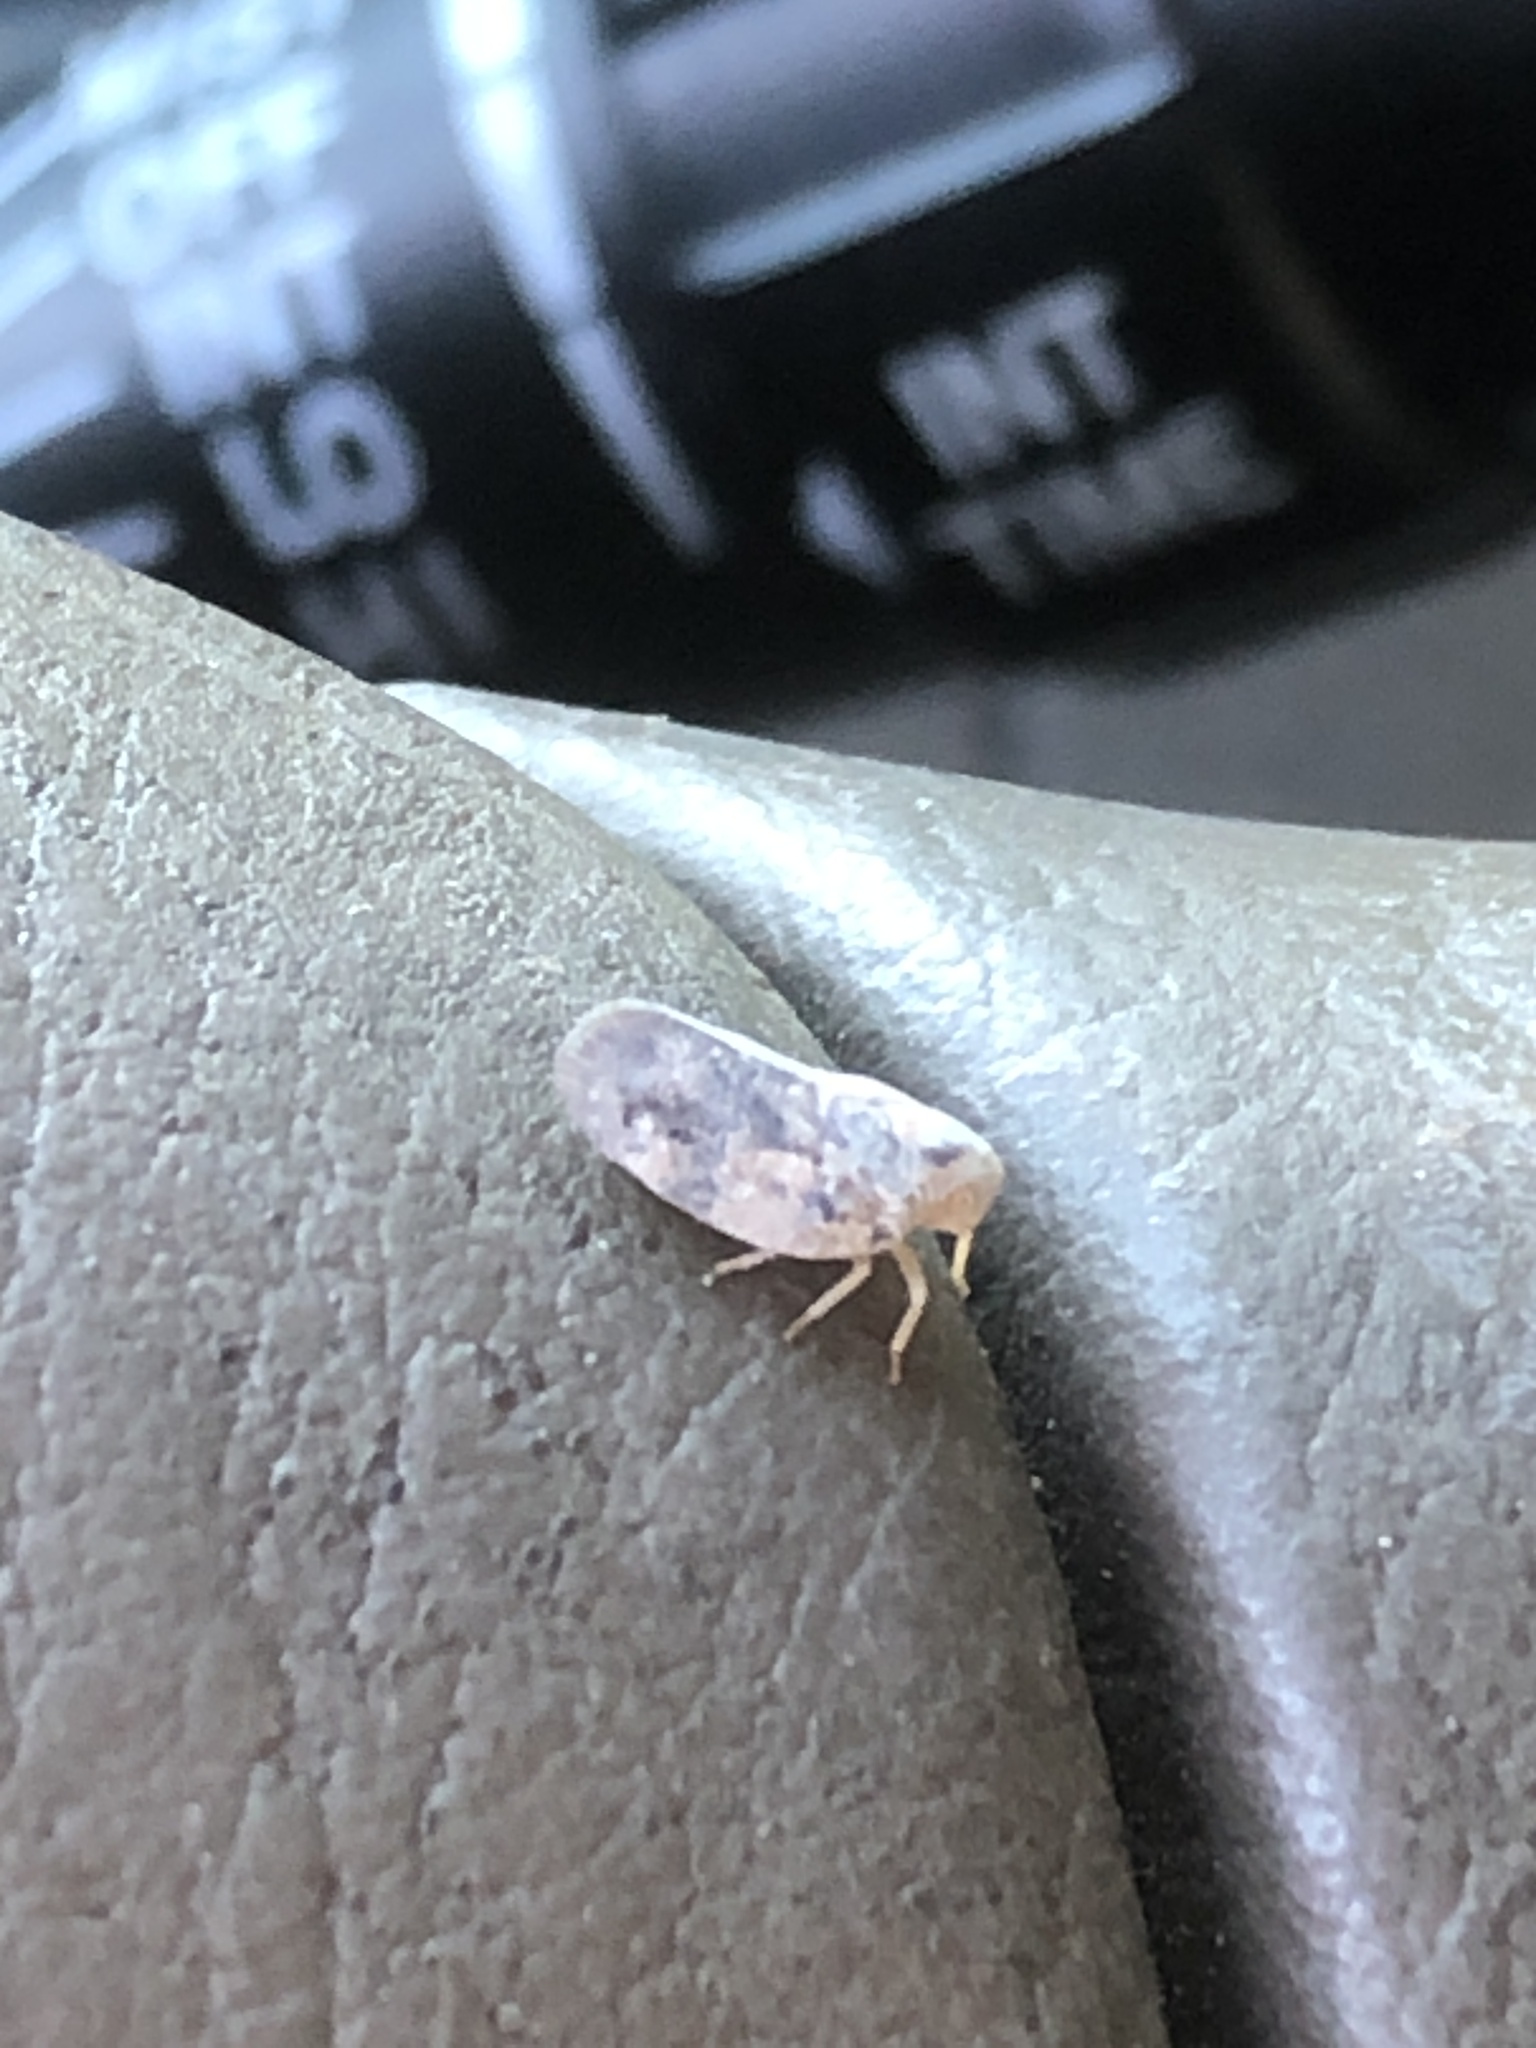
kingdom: Animalia
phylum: Arthropoda
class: Insecta
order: Hemiptera
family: Flatidae
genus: Metcalfa
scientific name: Metcalfa pruinosa
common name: Citrus flatid planthopper
